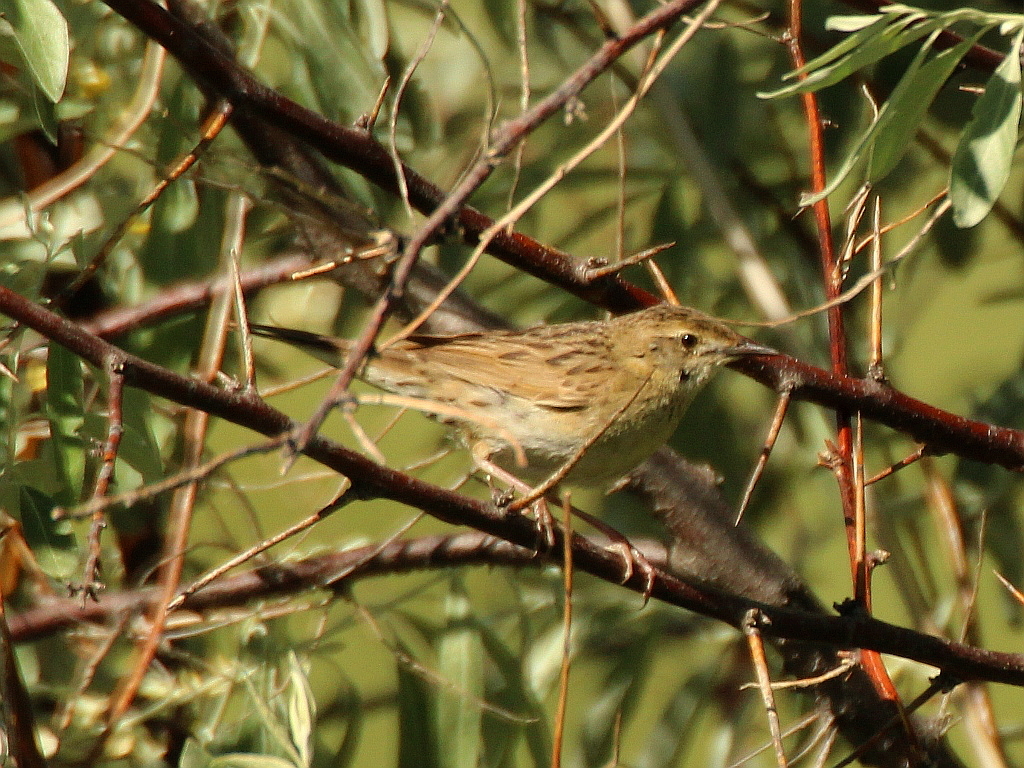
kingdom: Animalia
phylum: Chordata
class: Aves
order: Passeriformes
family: Locustellidae
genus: Locustella
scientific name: Locustella naevia
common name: Common grasshopper warbler
